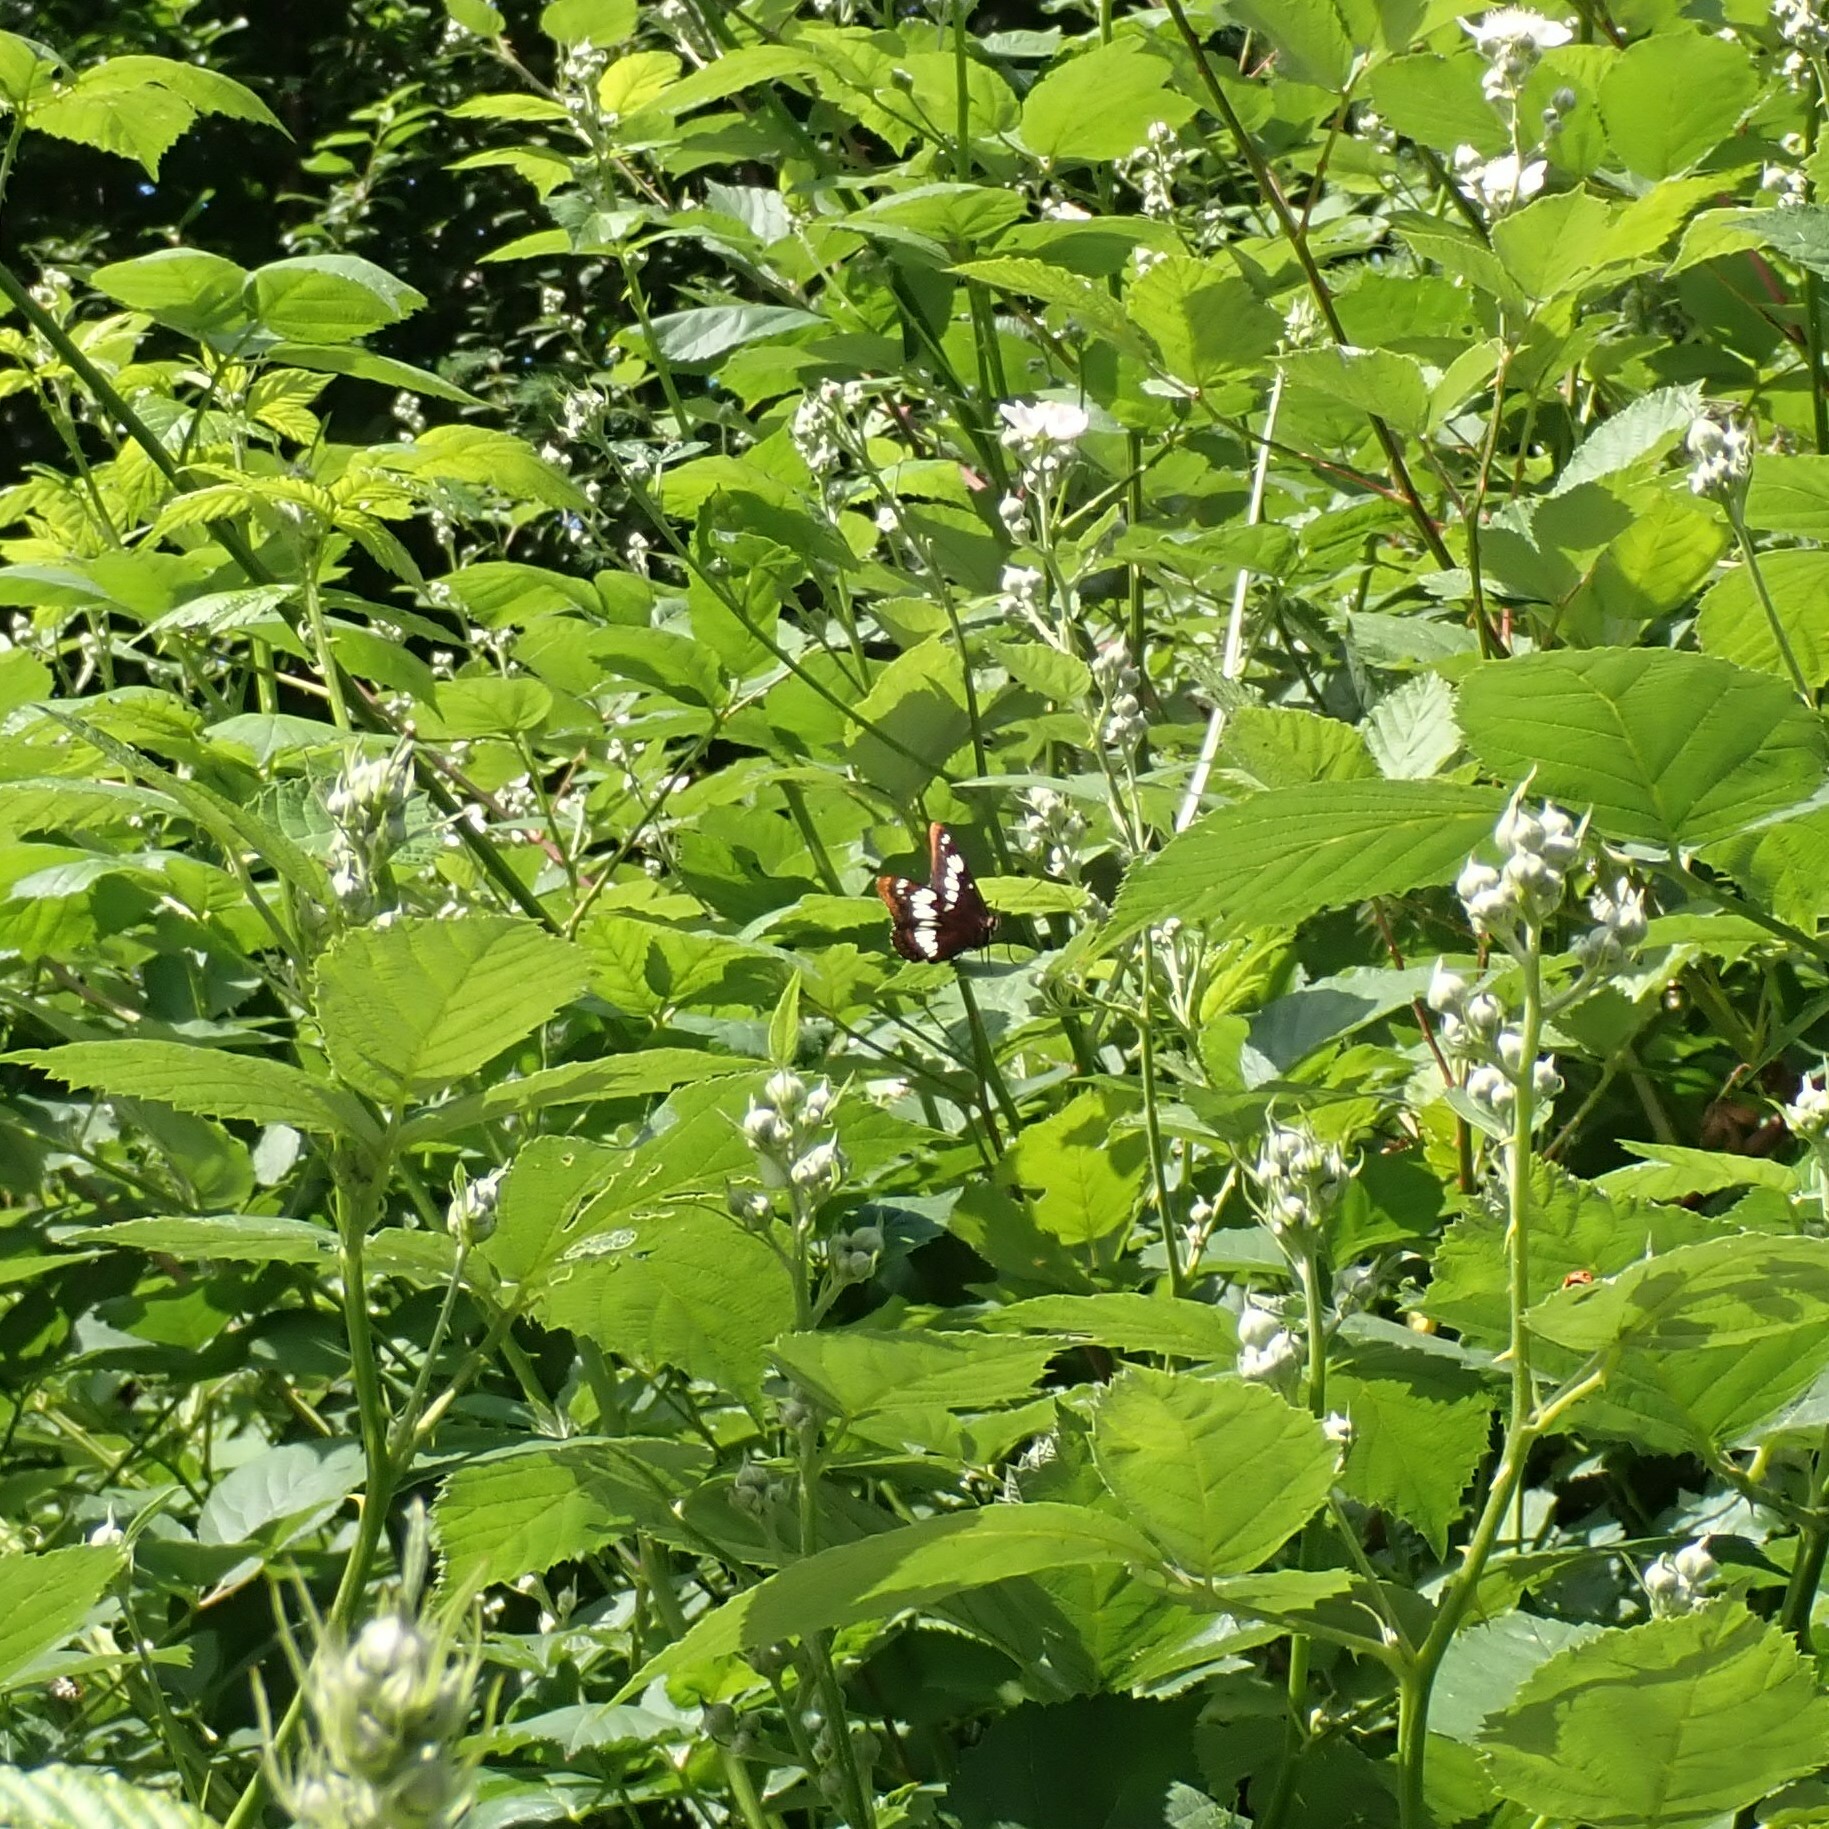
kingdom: Animalia
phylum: Arthropoda
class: Insecta
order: Lepidoptera
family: Nymphalidae
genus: Limenitis
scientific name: Limenitis lorquini
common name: Lorquin's admiral
